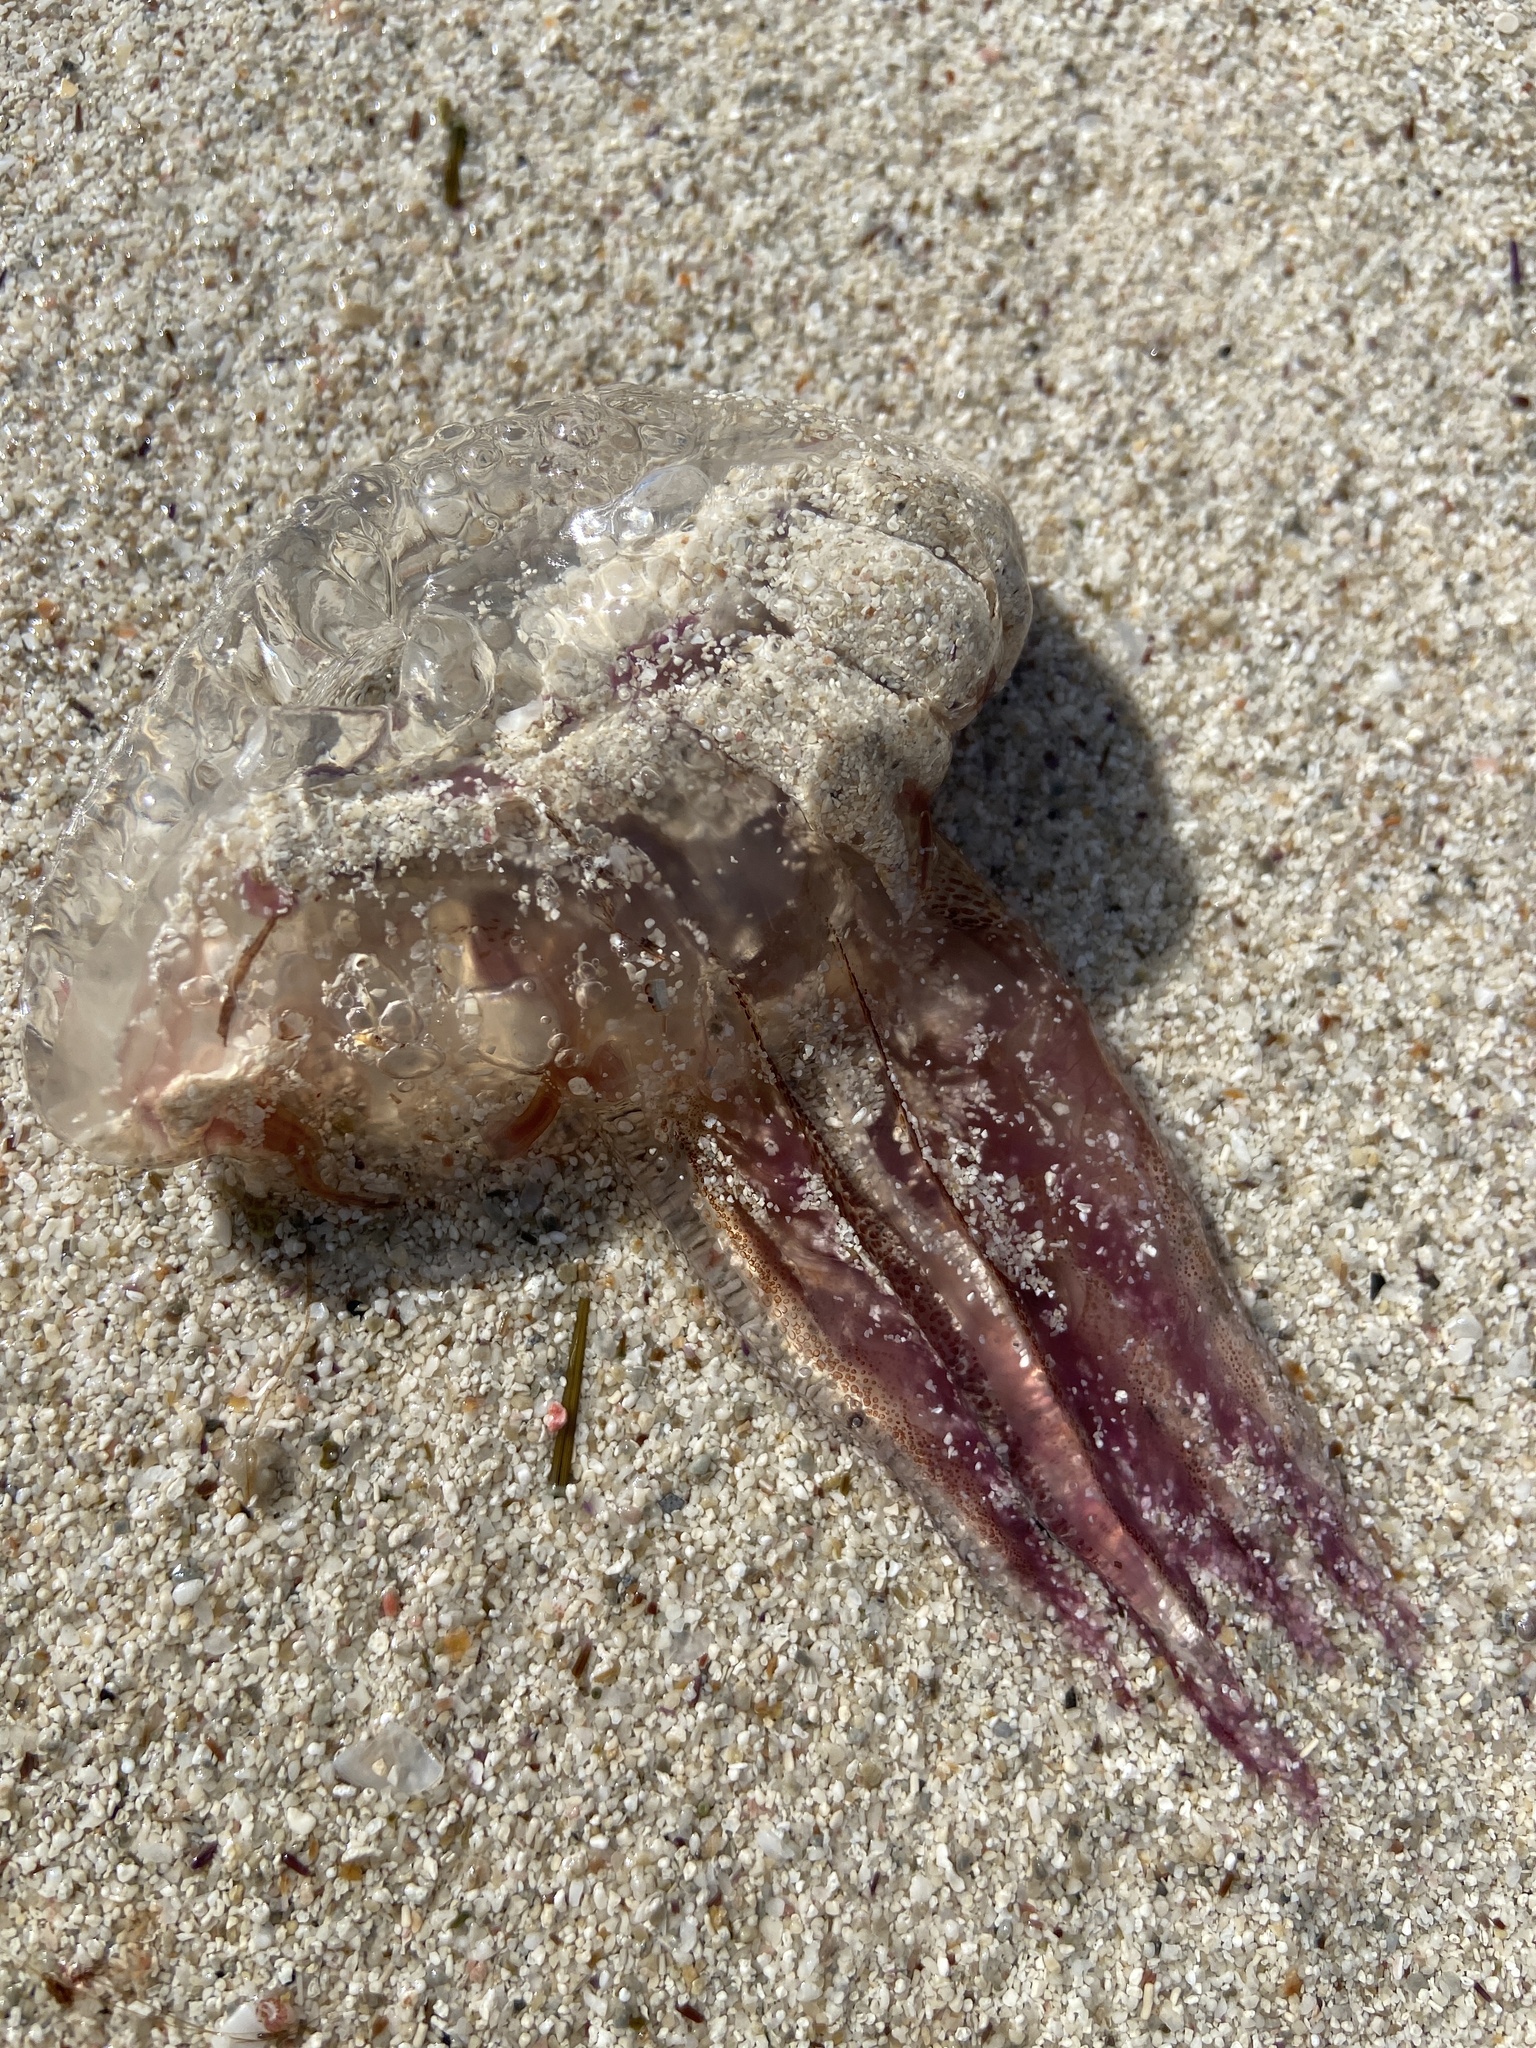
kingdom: Animalia
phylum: Cnidaria
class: Scyphozoa
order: Semaeostomeae
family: Pelagiidae
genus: Pelagia
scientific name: Pelagia noctiluca
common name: Mauve stinger
